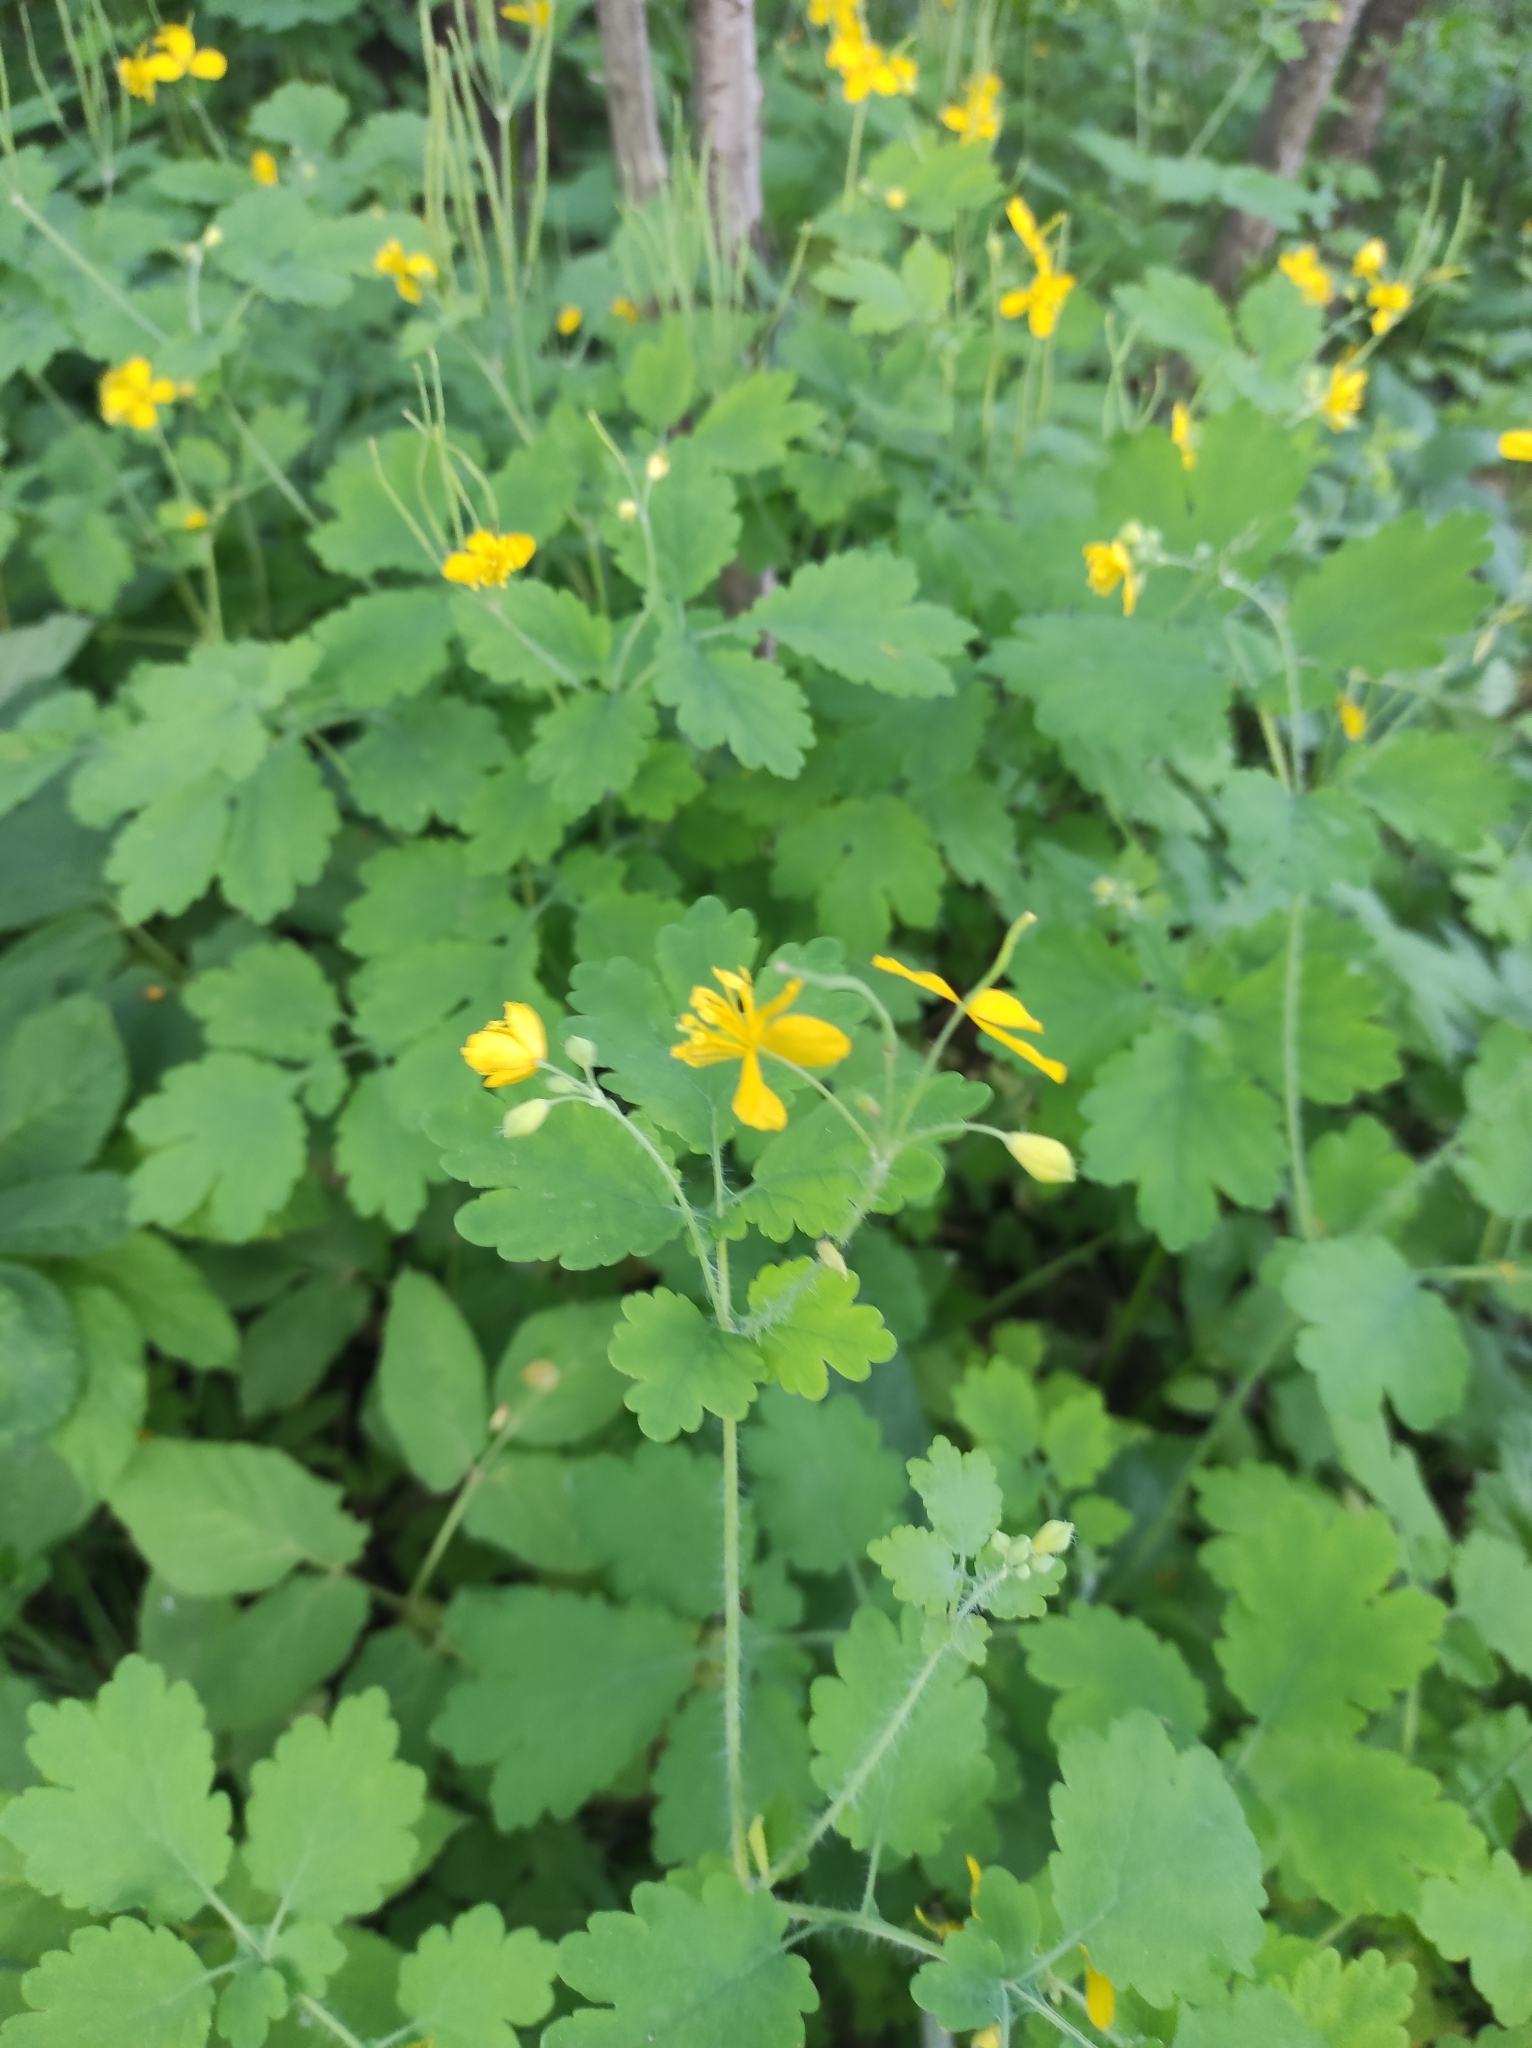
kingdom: Plantae
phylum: Tracheophyta
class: Magnoliopsida
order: Ranunculales
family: Papaveraceae
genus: Chelidonium
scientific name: Chelidonium majus
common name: Greater celandine
